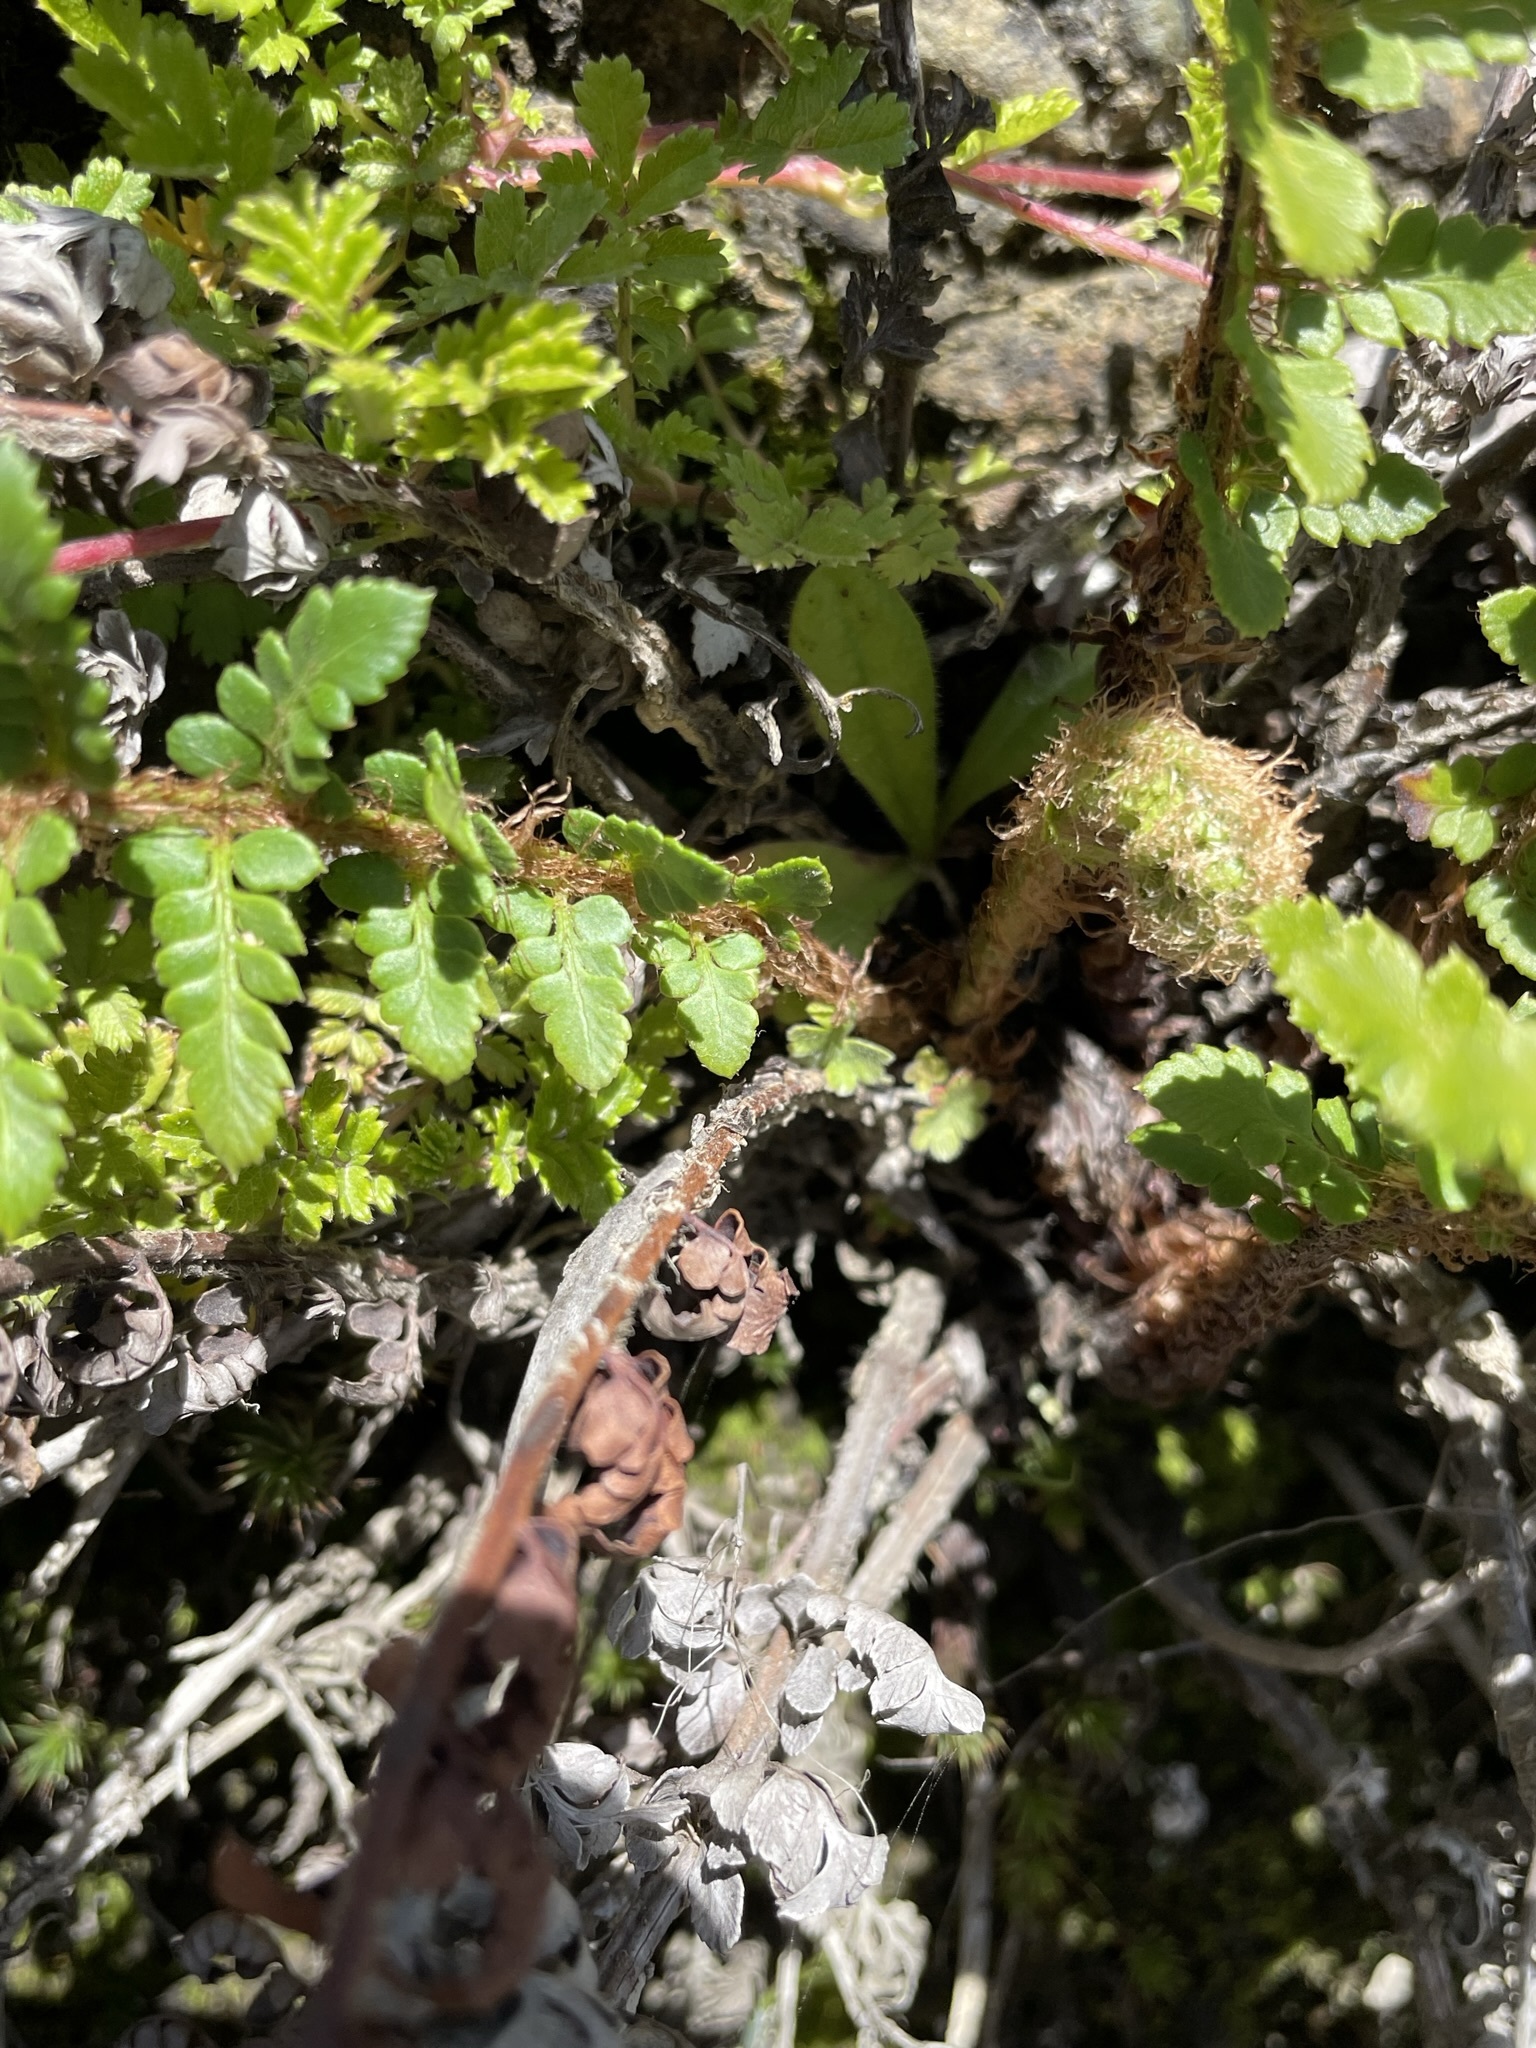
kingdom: Plantae
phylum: Tracheophyta
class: Polypodiopsida
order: Polypodiales
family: Dryopteridaceae
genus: Polystichum
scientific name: Polystichum proliferum
